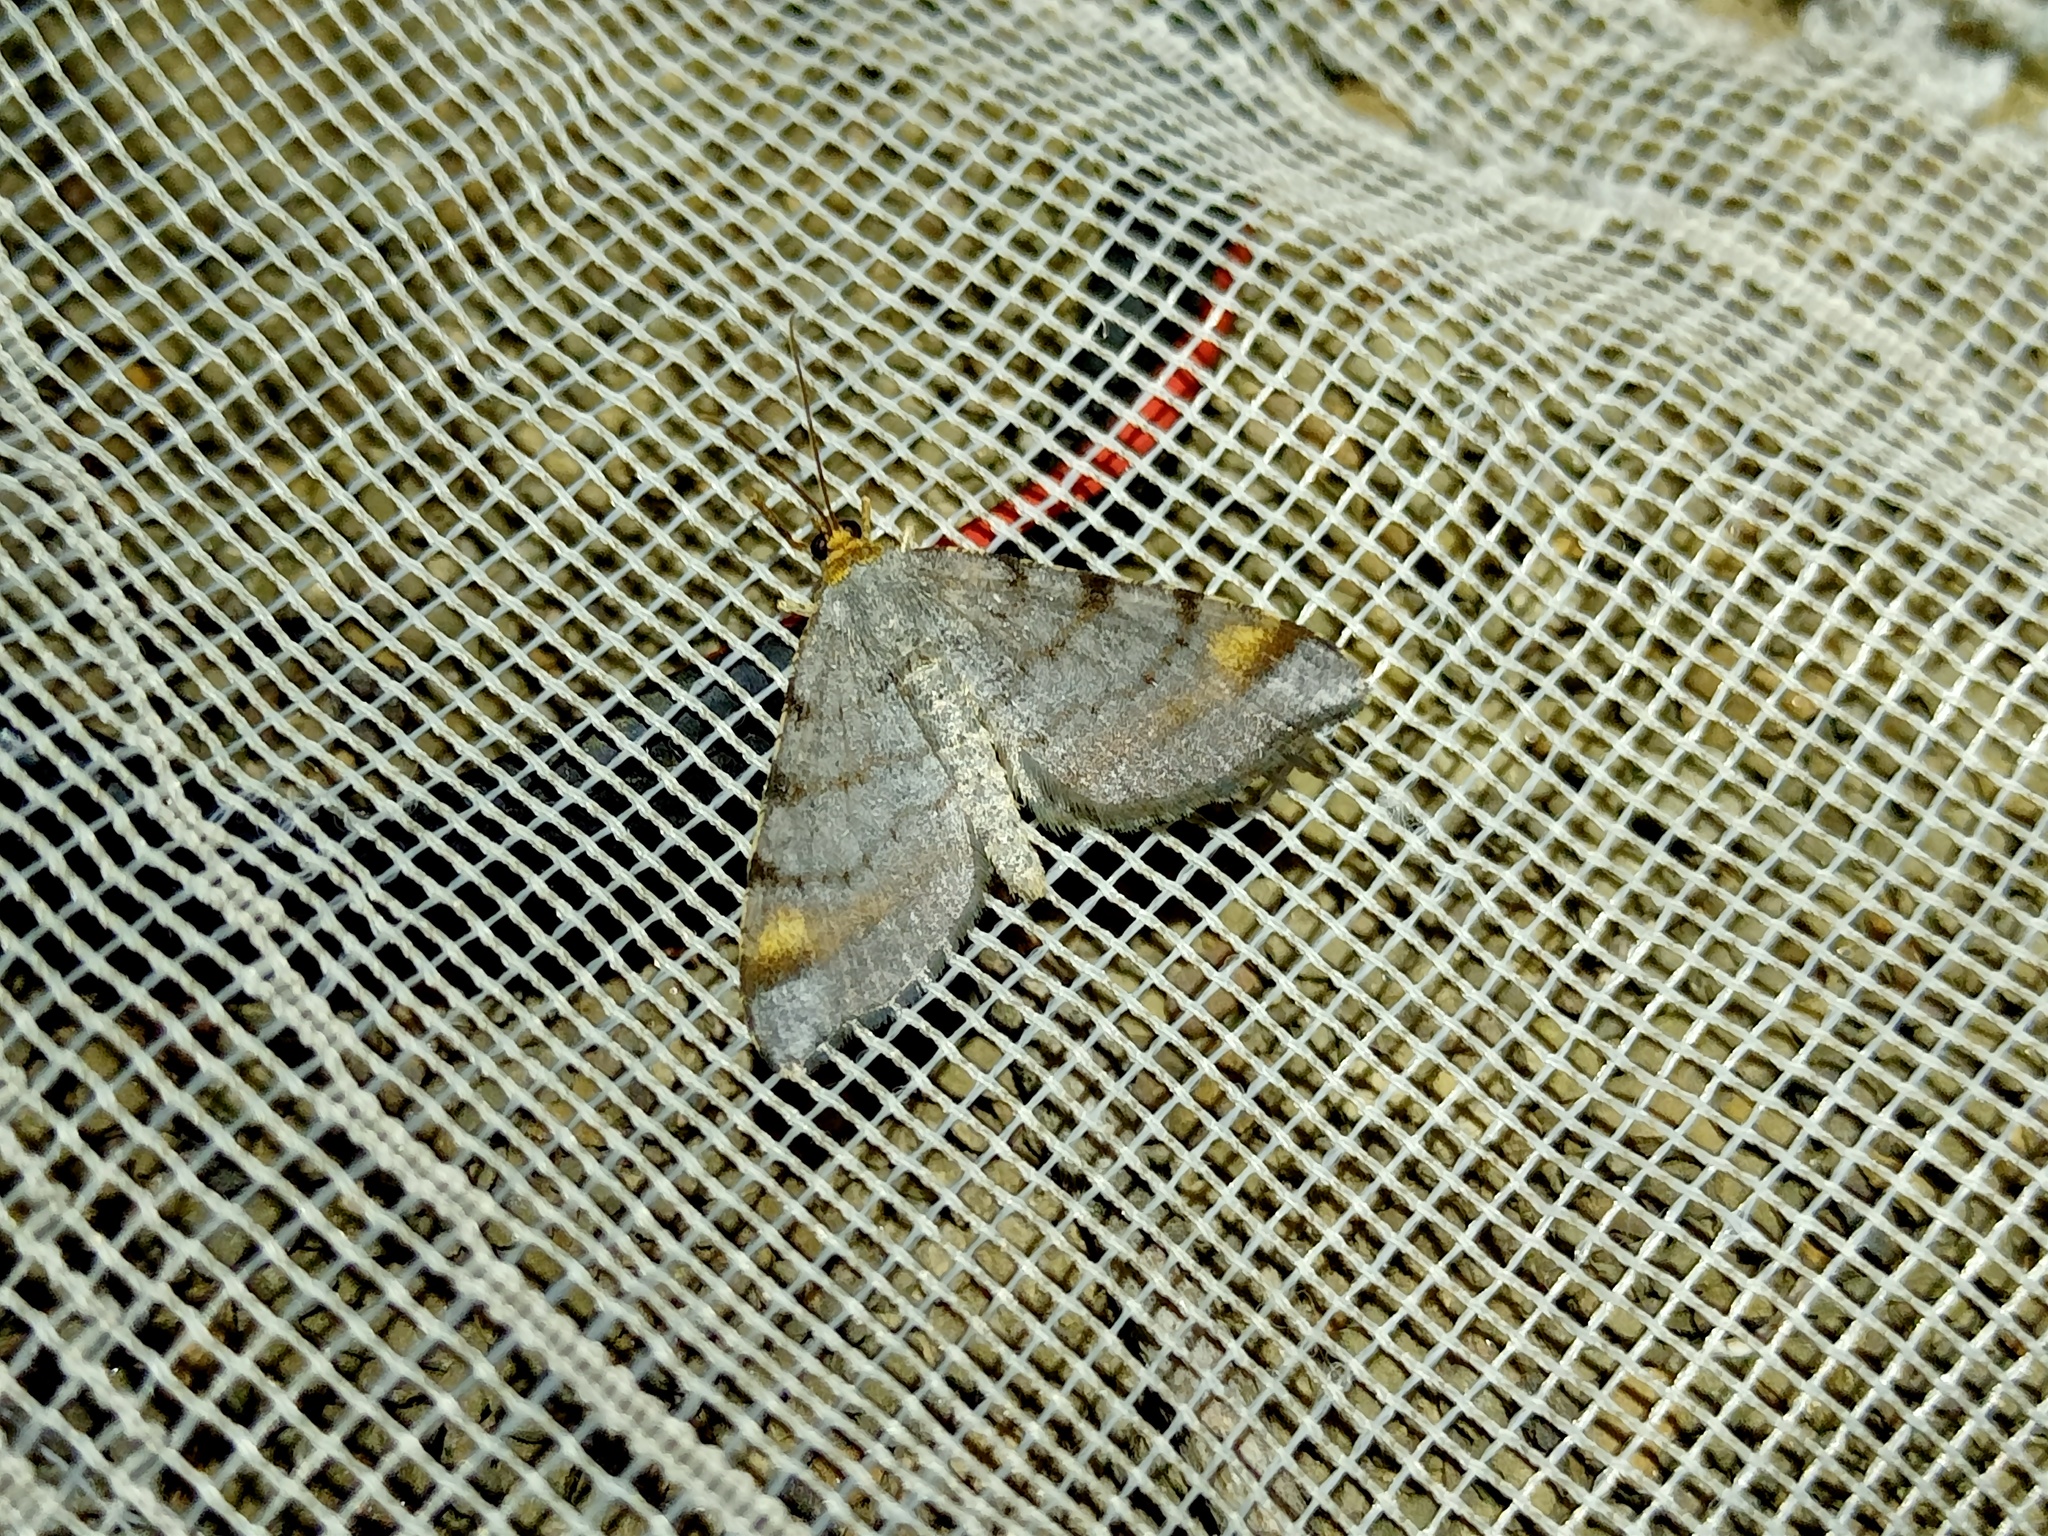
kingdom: Animalia
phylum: Arthropoda
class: Insecta
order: Lepidoptera
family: Geometridae
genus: Macaria
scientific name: Macaria liturata
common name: Tawny-barred angle
